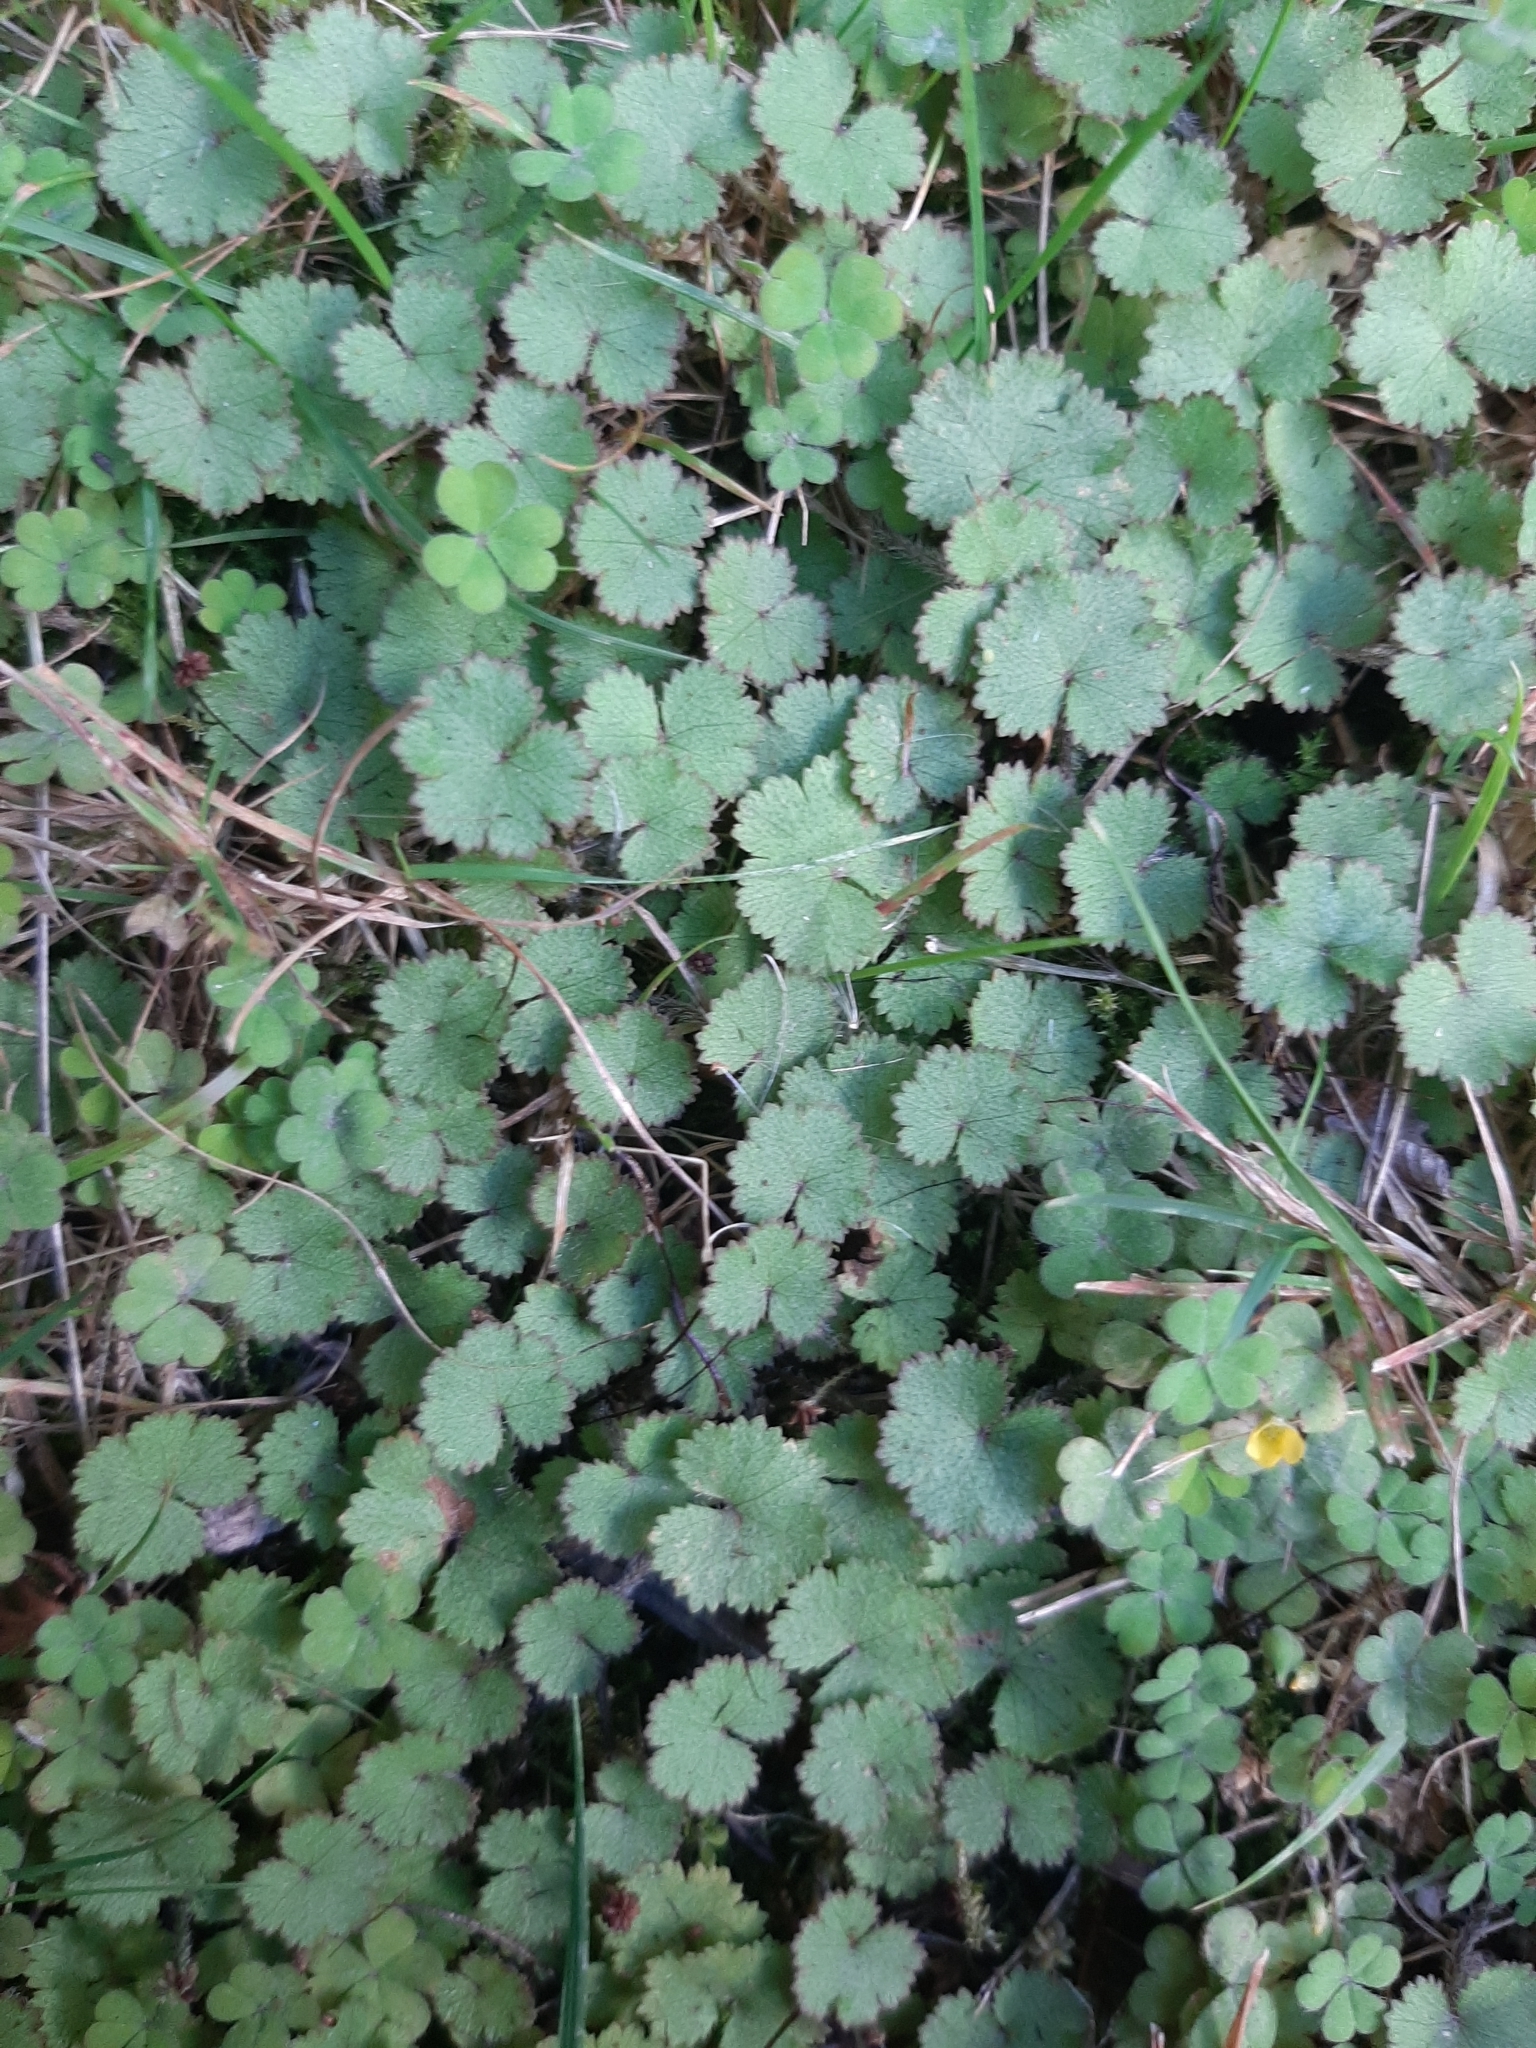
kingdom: Plantae
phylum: Tracheophyta
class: Magnoliopsida
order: Apiales
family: Araliaceae
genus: Hydrocotyle
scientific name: Hydrocotyle moschata
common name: Hairy pennywort
